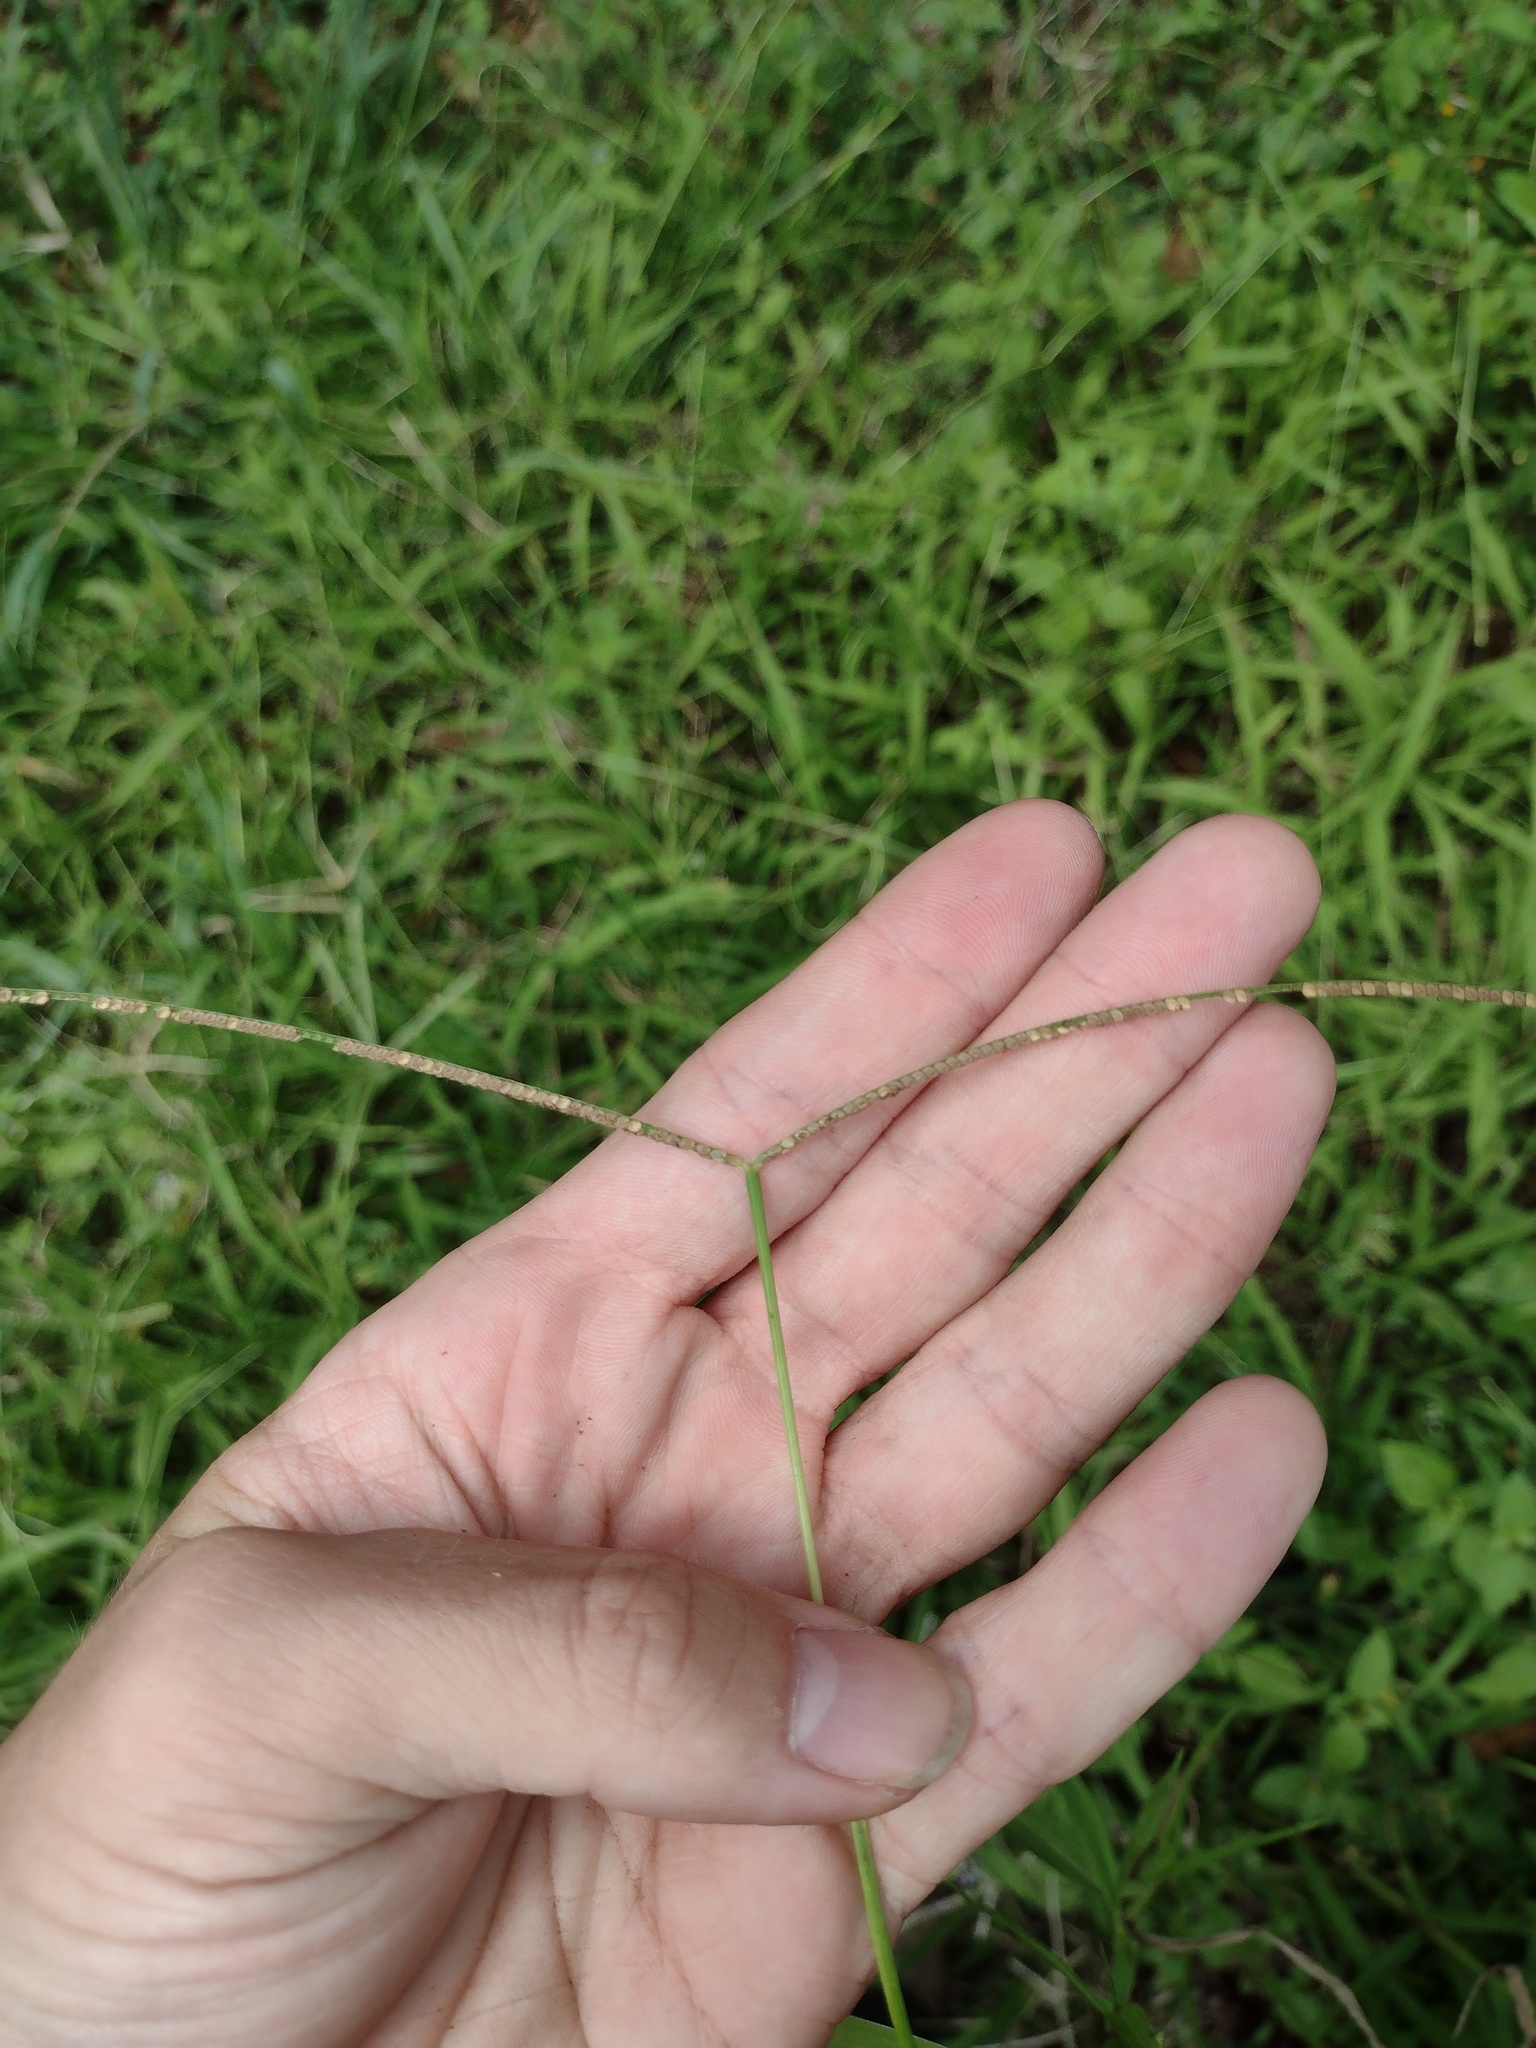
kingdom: Plantae
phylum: Tracheophyta
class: Liliopsida
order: Poales
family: Poaceae
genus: Paspalum
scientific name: Paspalum conjugatum
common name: Hilograss
